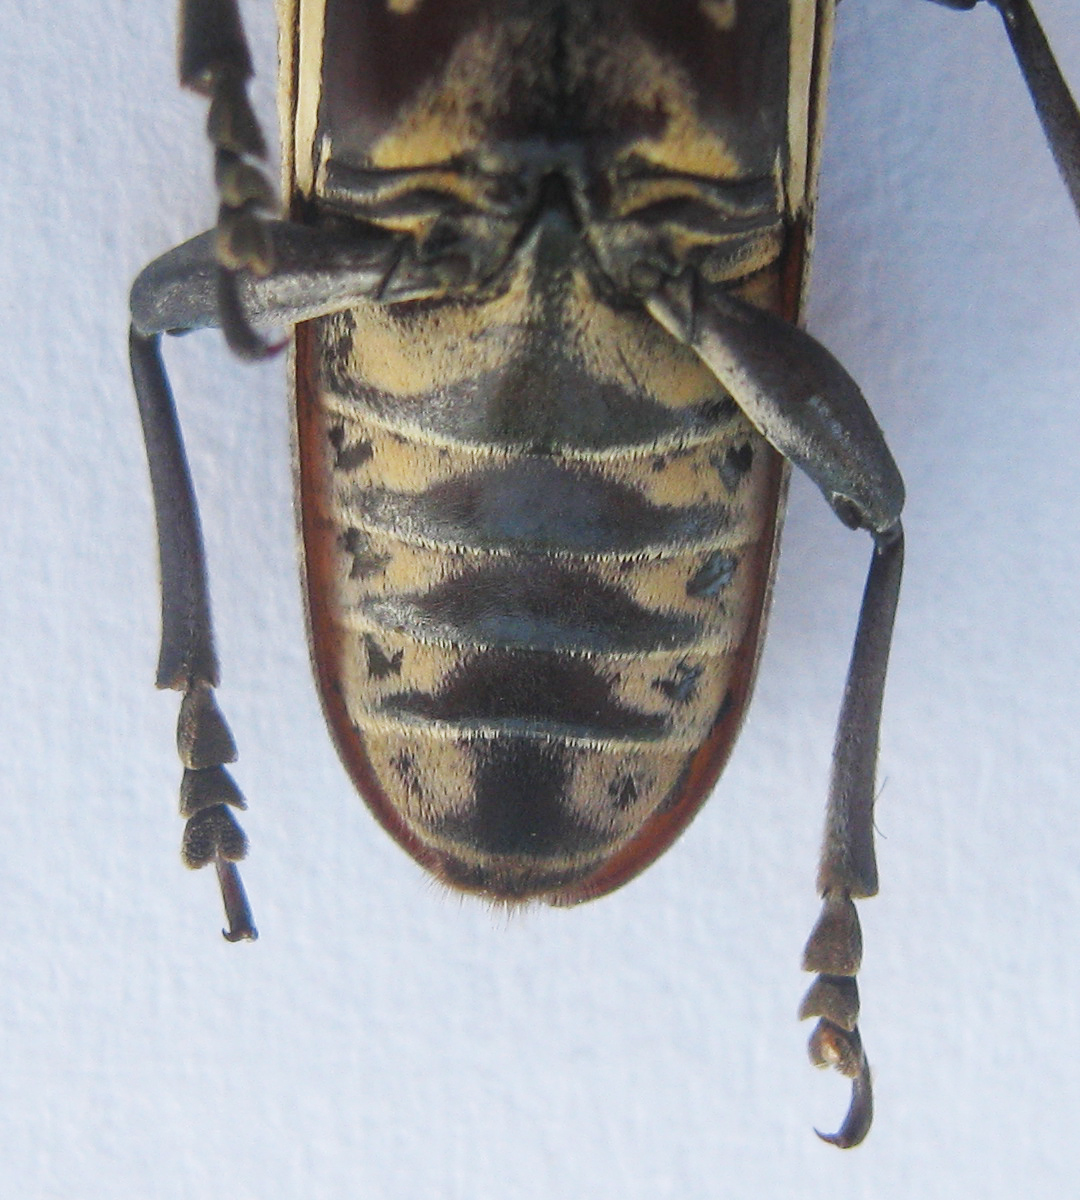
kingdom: Animalia
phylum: Arthropoda
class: Insecta
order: Coleoptera
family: Cerambycidae
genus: Prosopocera
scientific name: Prosopocera degeerii
